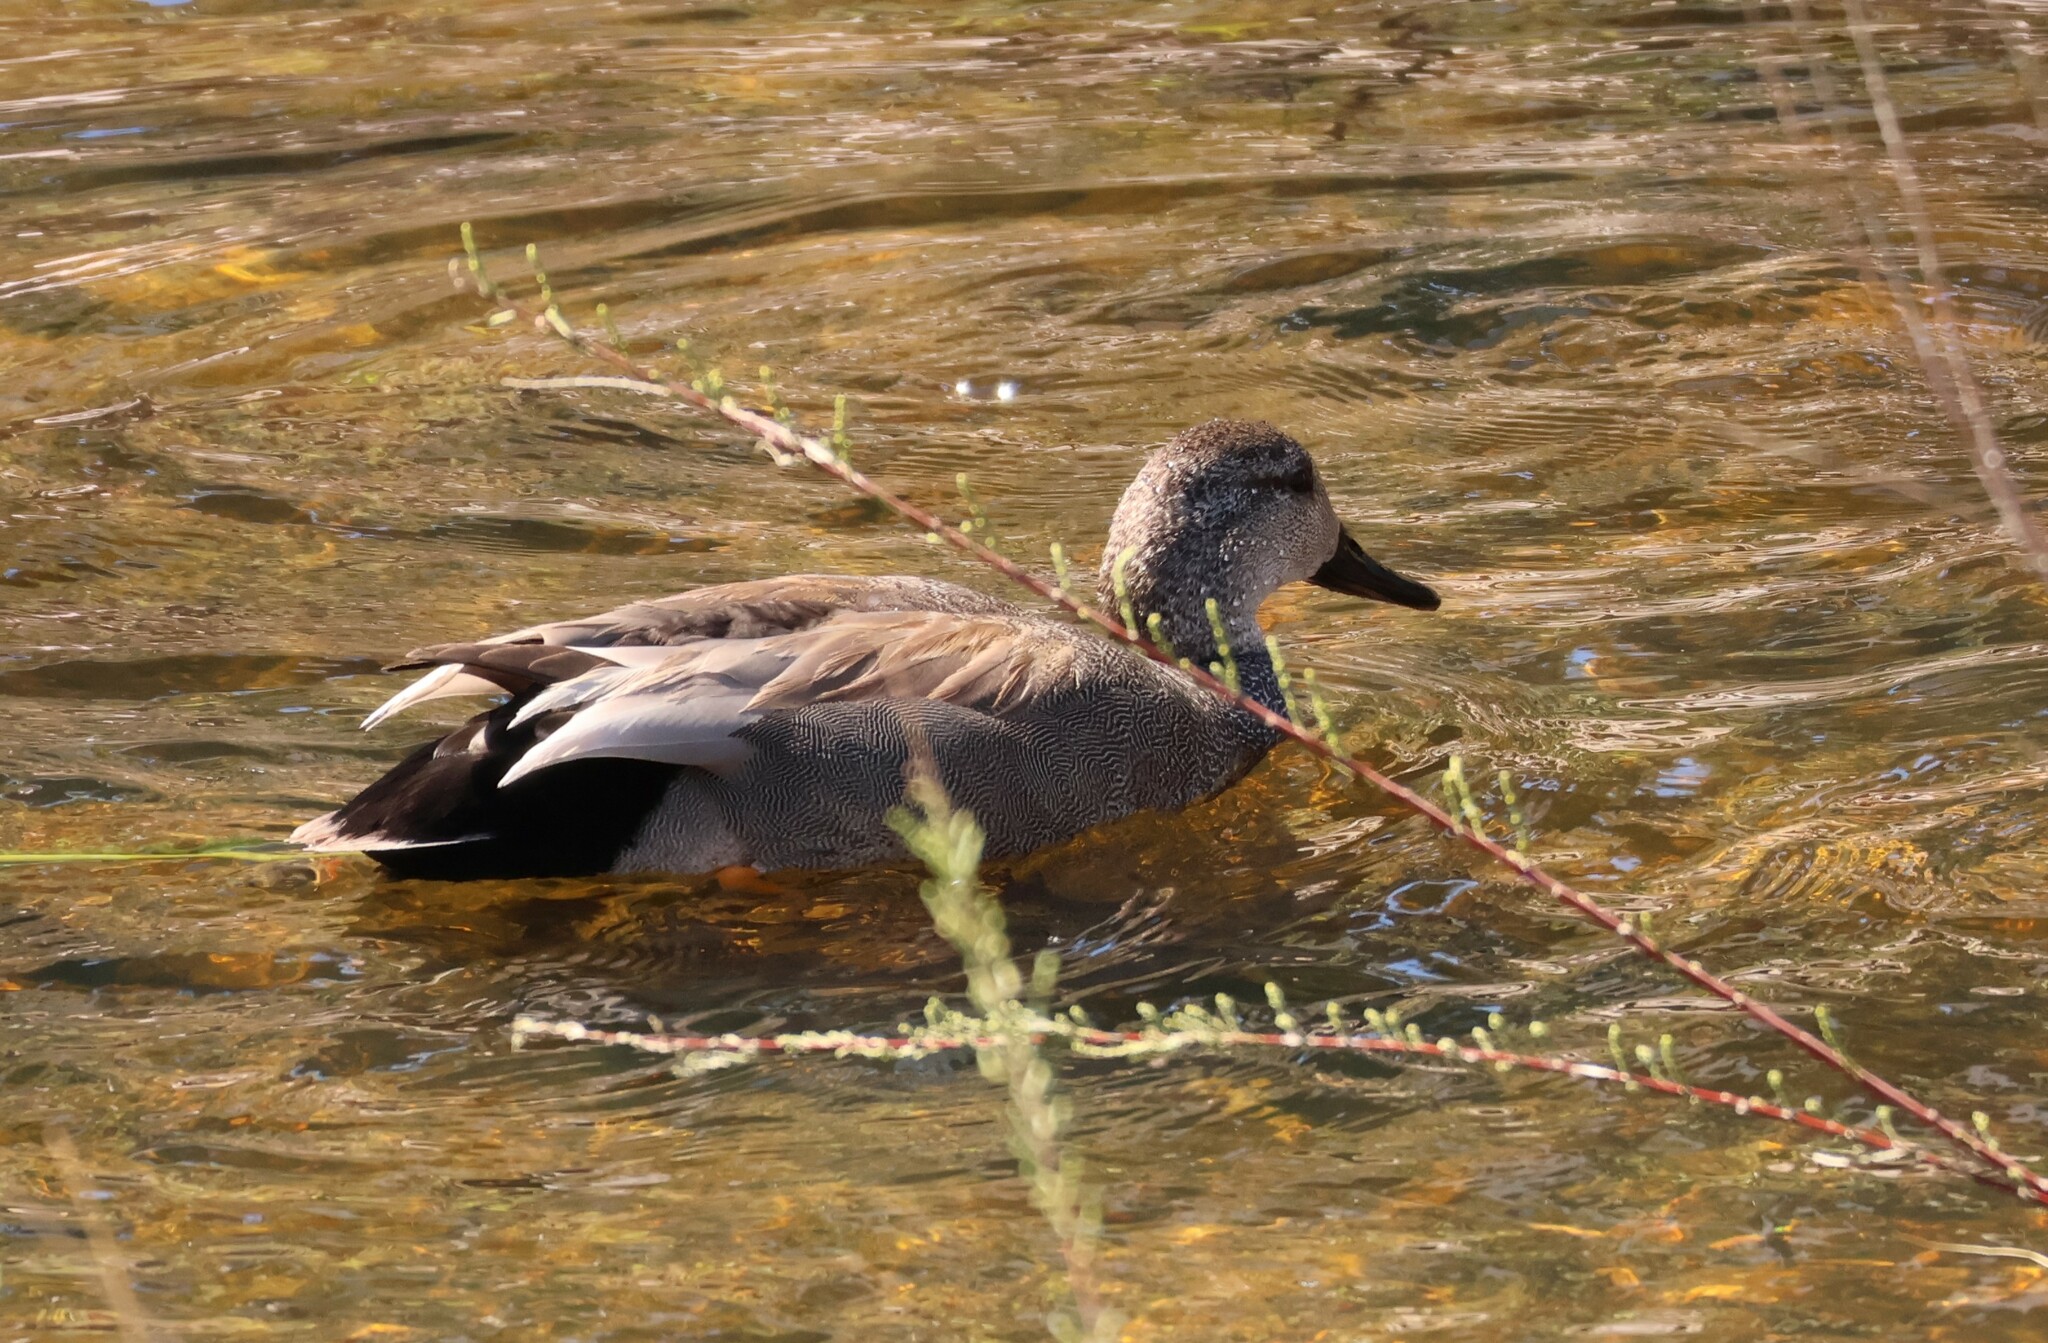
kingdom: Animalia
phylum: Chordata
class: Aves
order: Anseriformes
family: Anatidae
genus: Mareca
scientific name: Mareca strepera
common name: Gadwall
